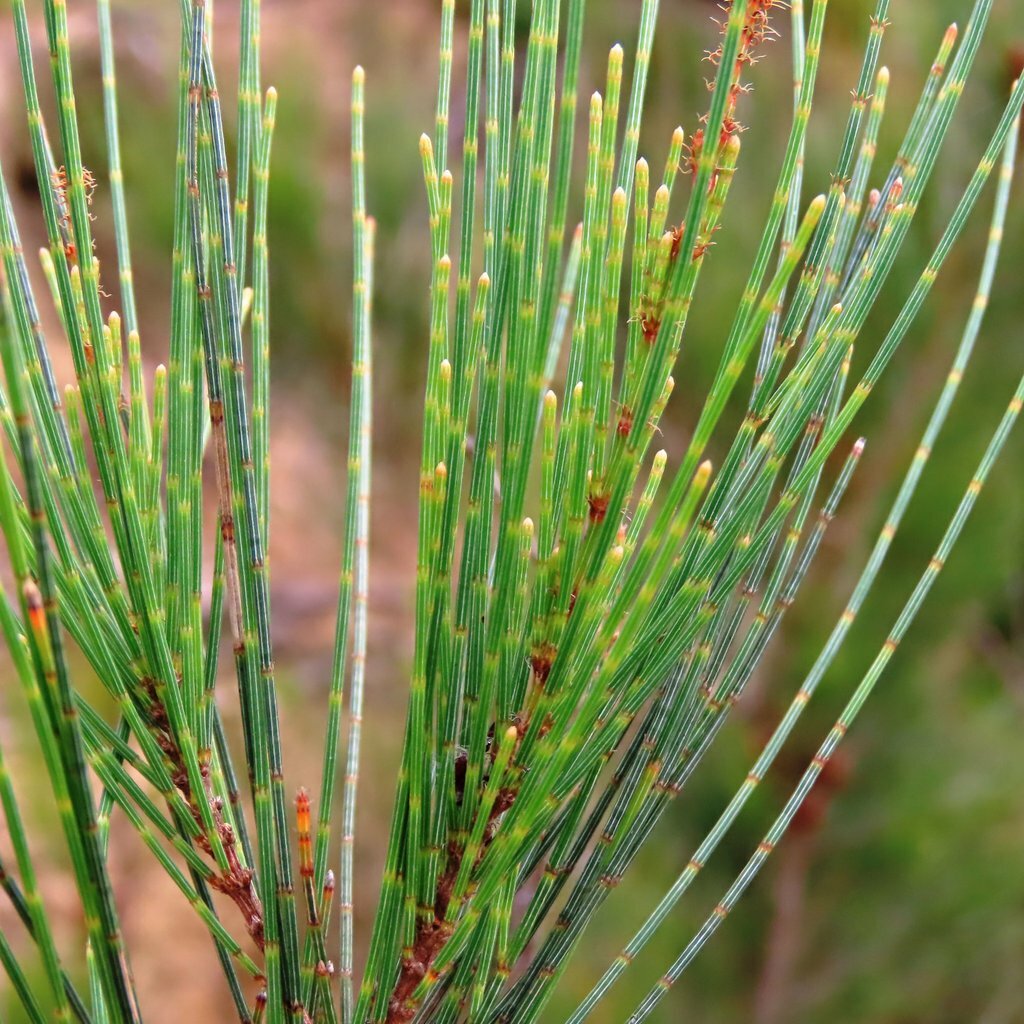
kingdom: Plantae
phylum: Tracheophyta
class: Magnoliopsida
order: Fagales
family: Casuarinaceae
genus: Allocasuarina
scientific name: Allocasuarina littoralis
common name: Black she-oak
